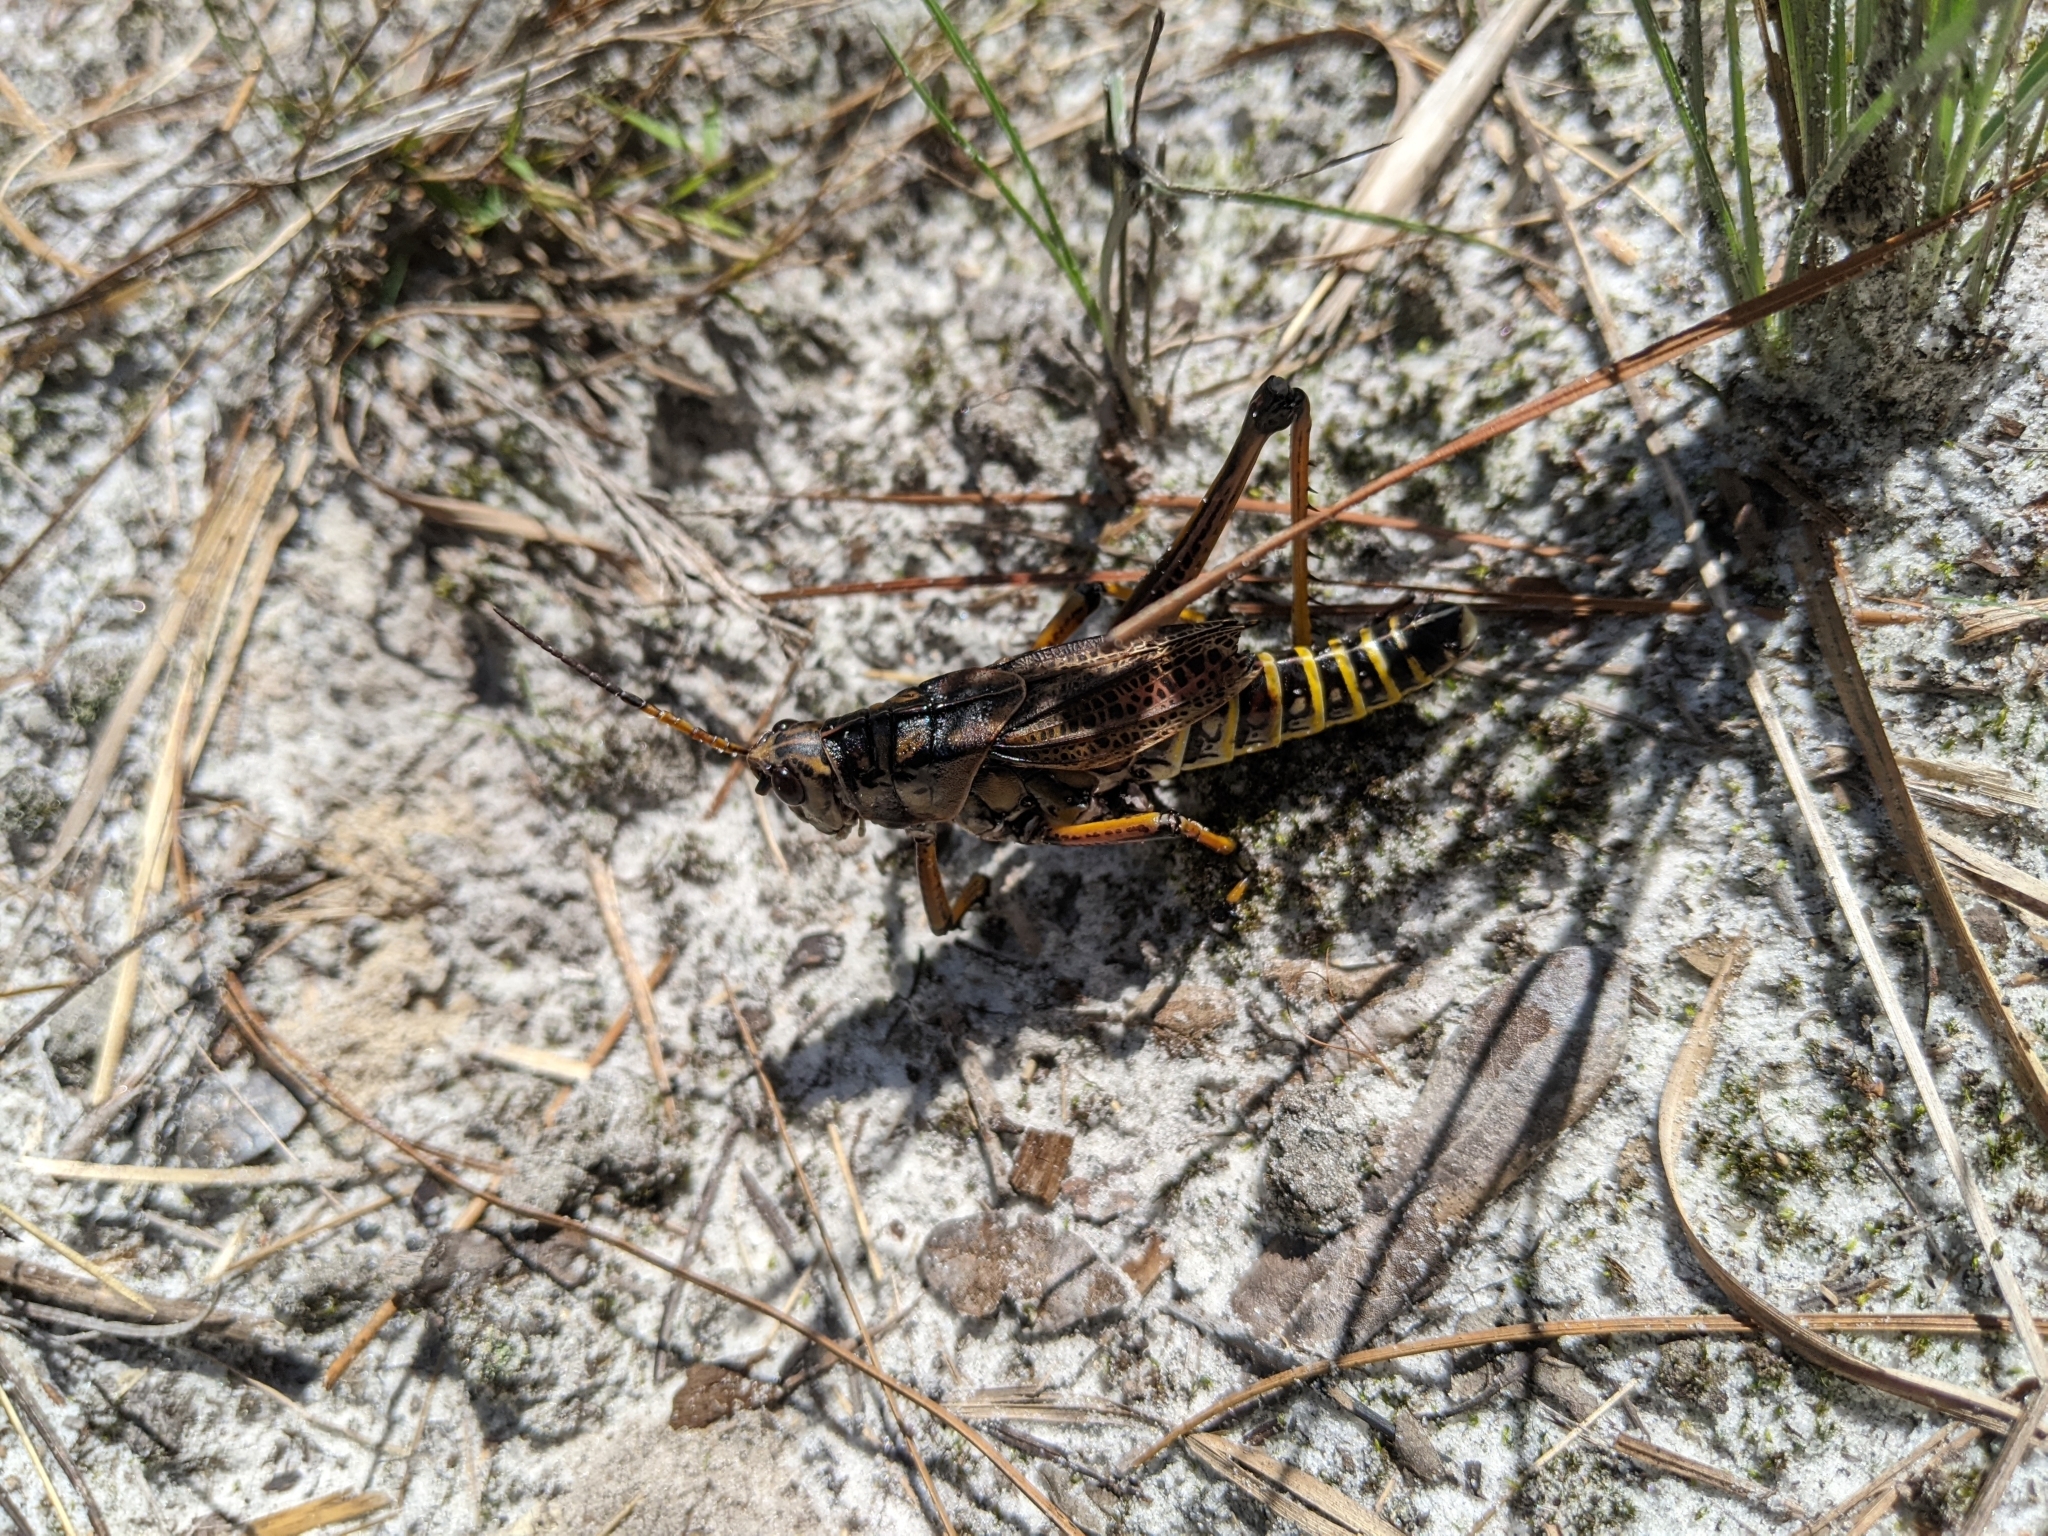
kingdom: Animalia
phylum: Arthropoda
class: Insecta
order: Orthoptera
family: Romaleidae
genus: Romalea
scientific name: Romalea microptera
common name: Eastern lubber grasshopper
